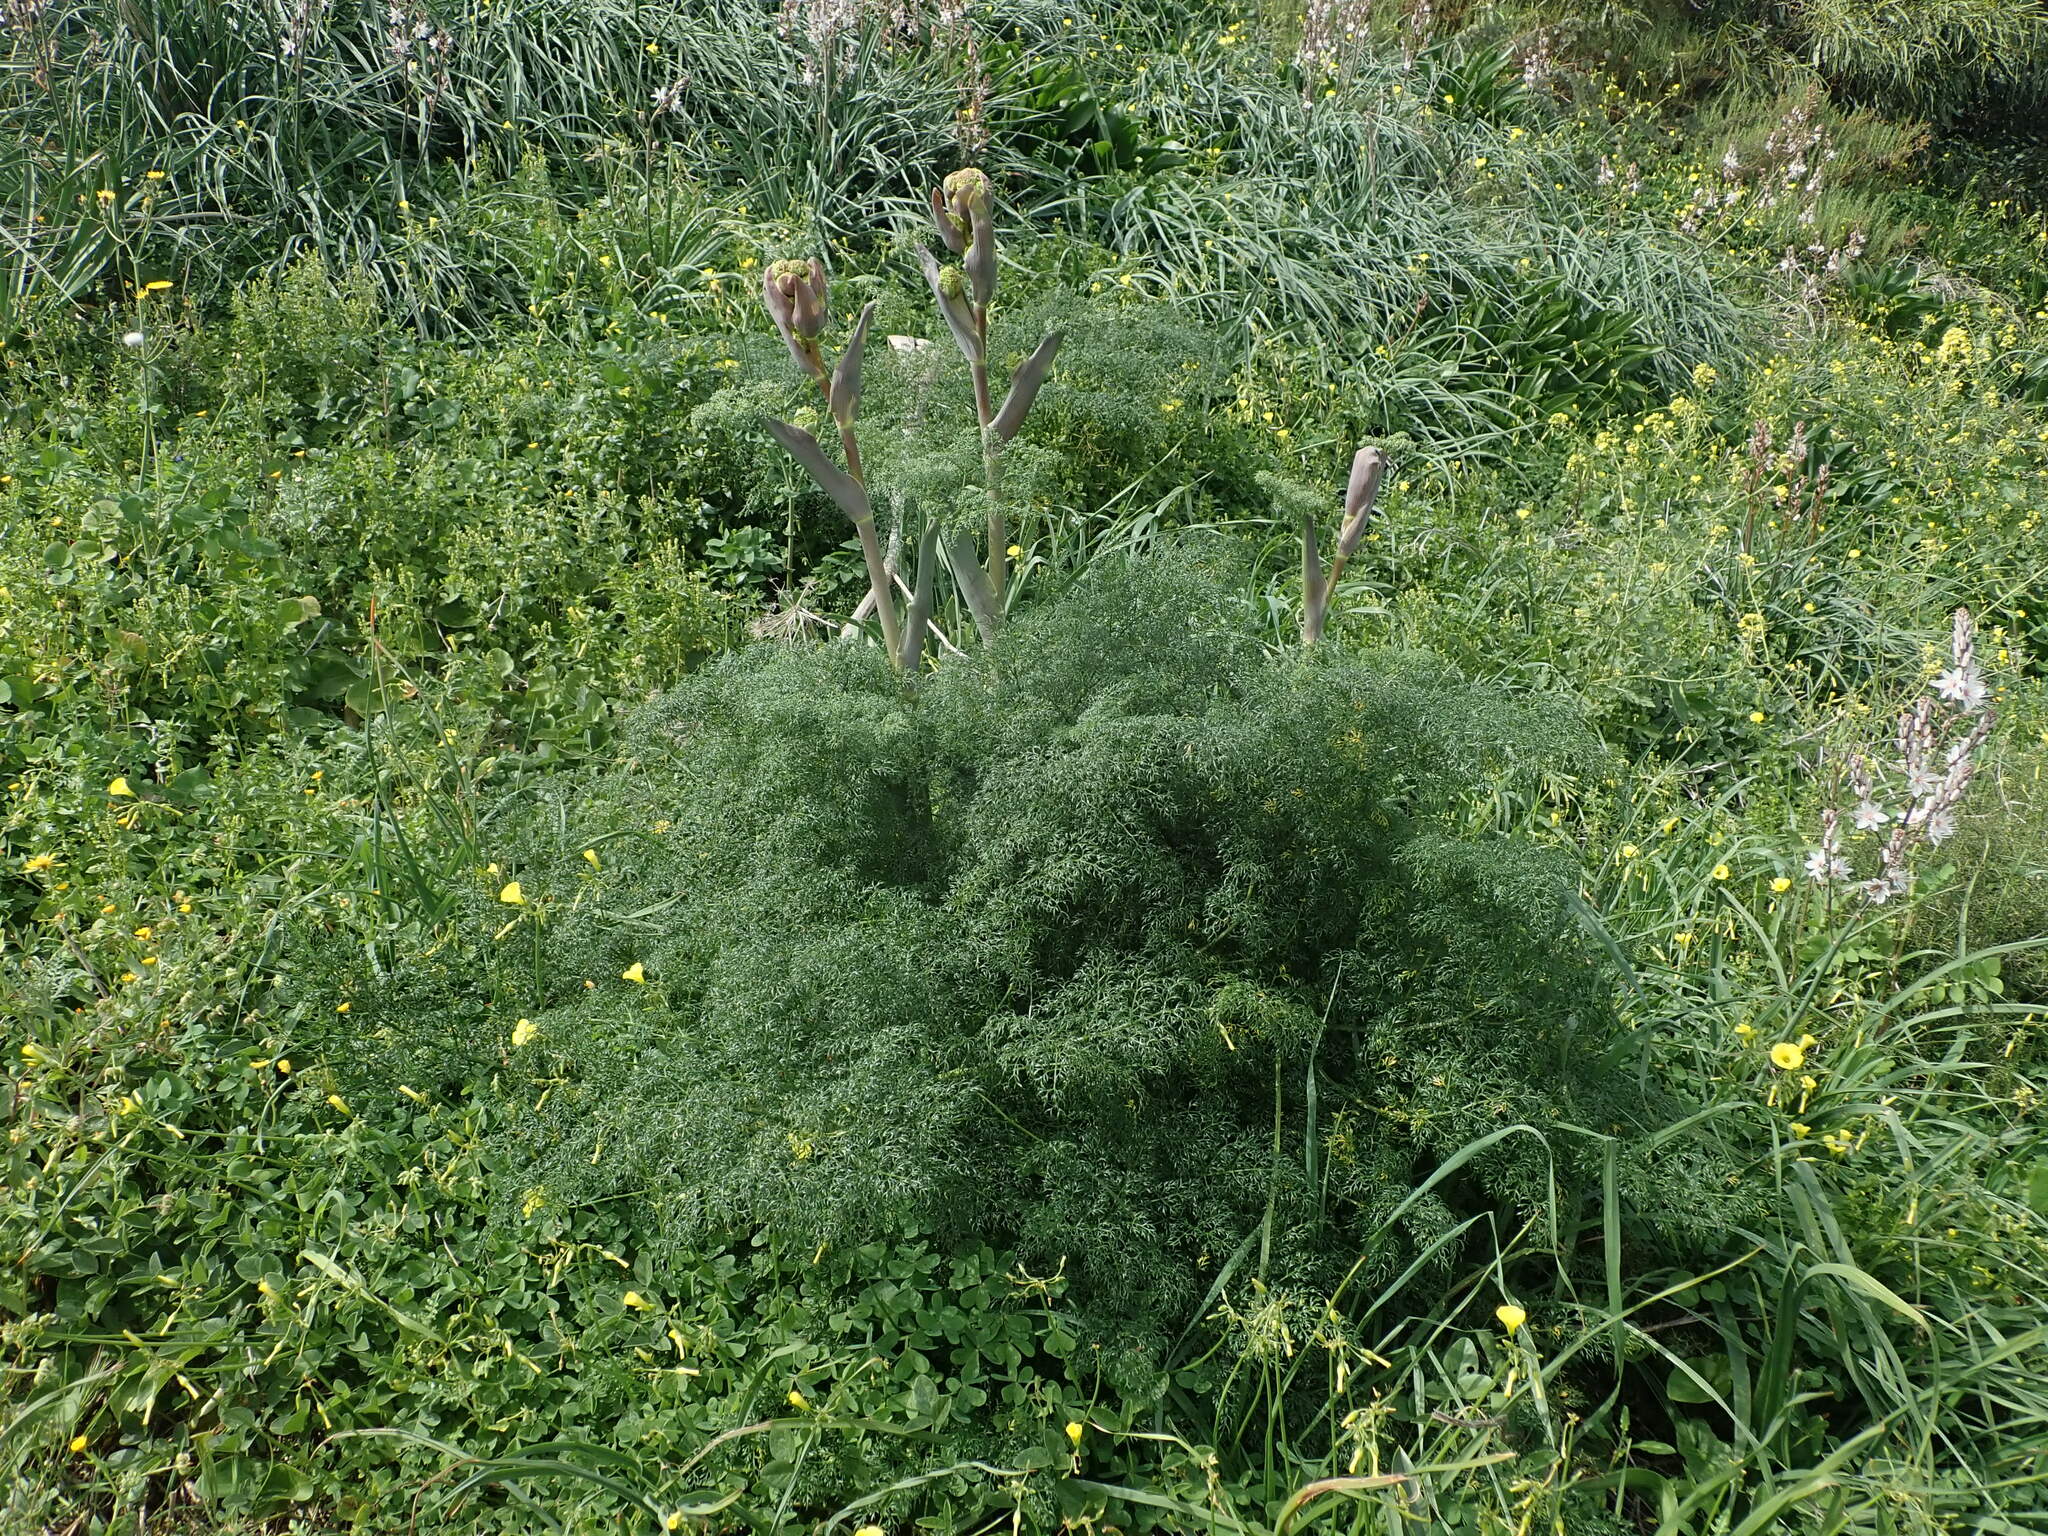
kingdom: Plantae
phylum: Tracheophyta
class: Magnoliopsida
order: Apiales
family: Apiaceae
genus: Ferula
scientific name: Ferula melitensis
